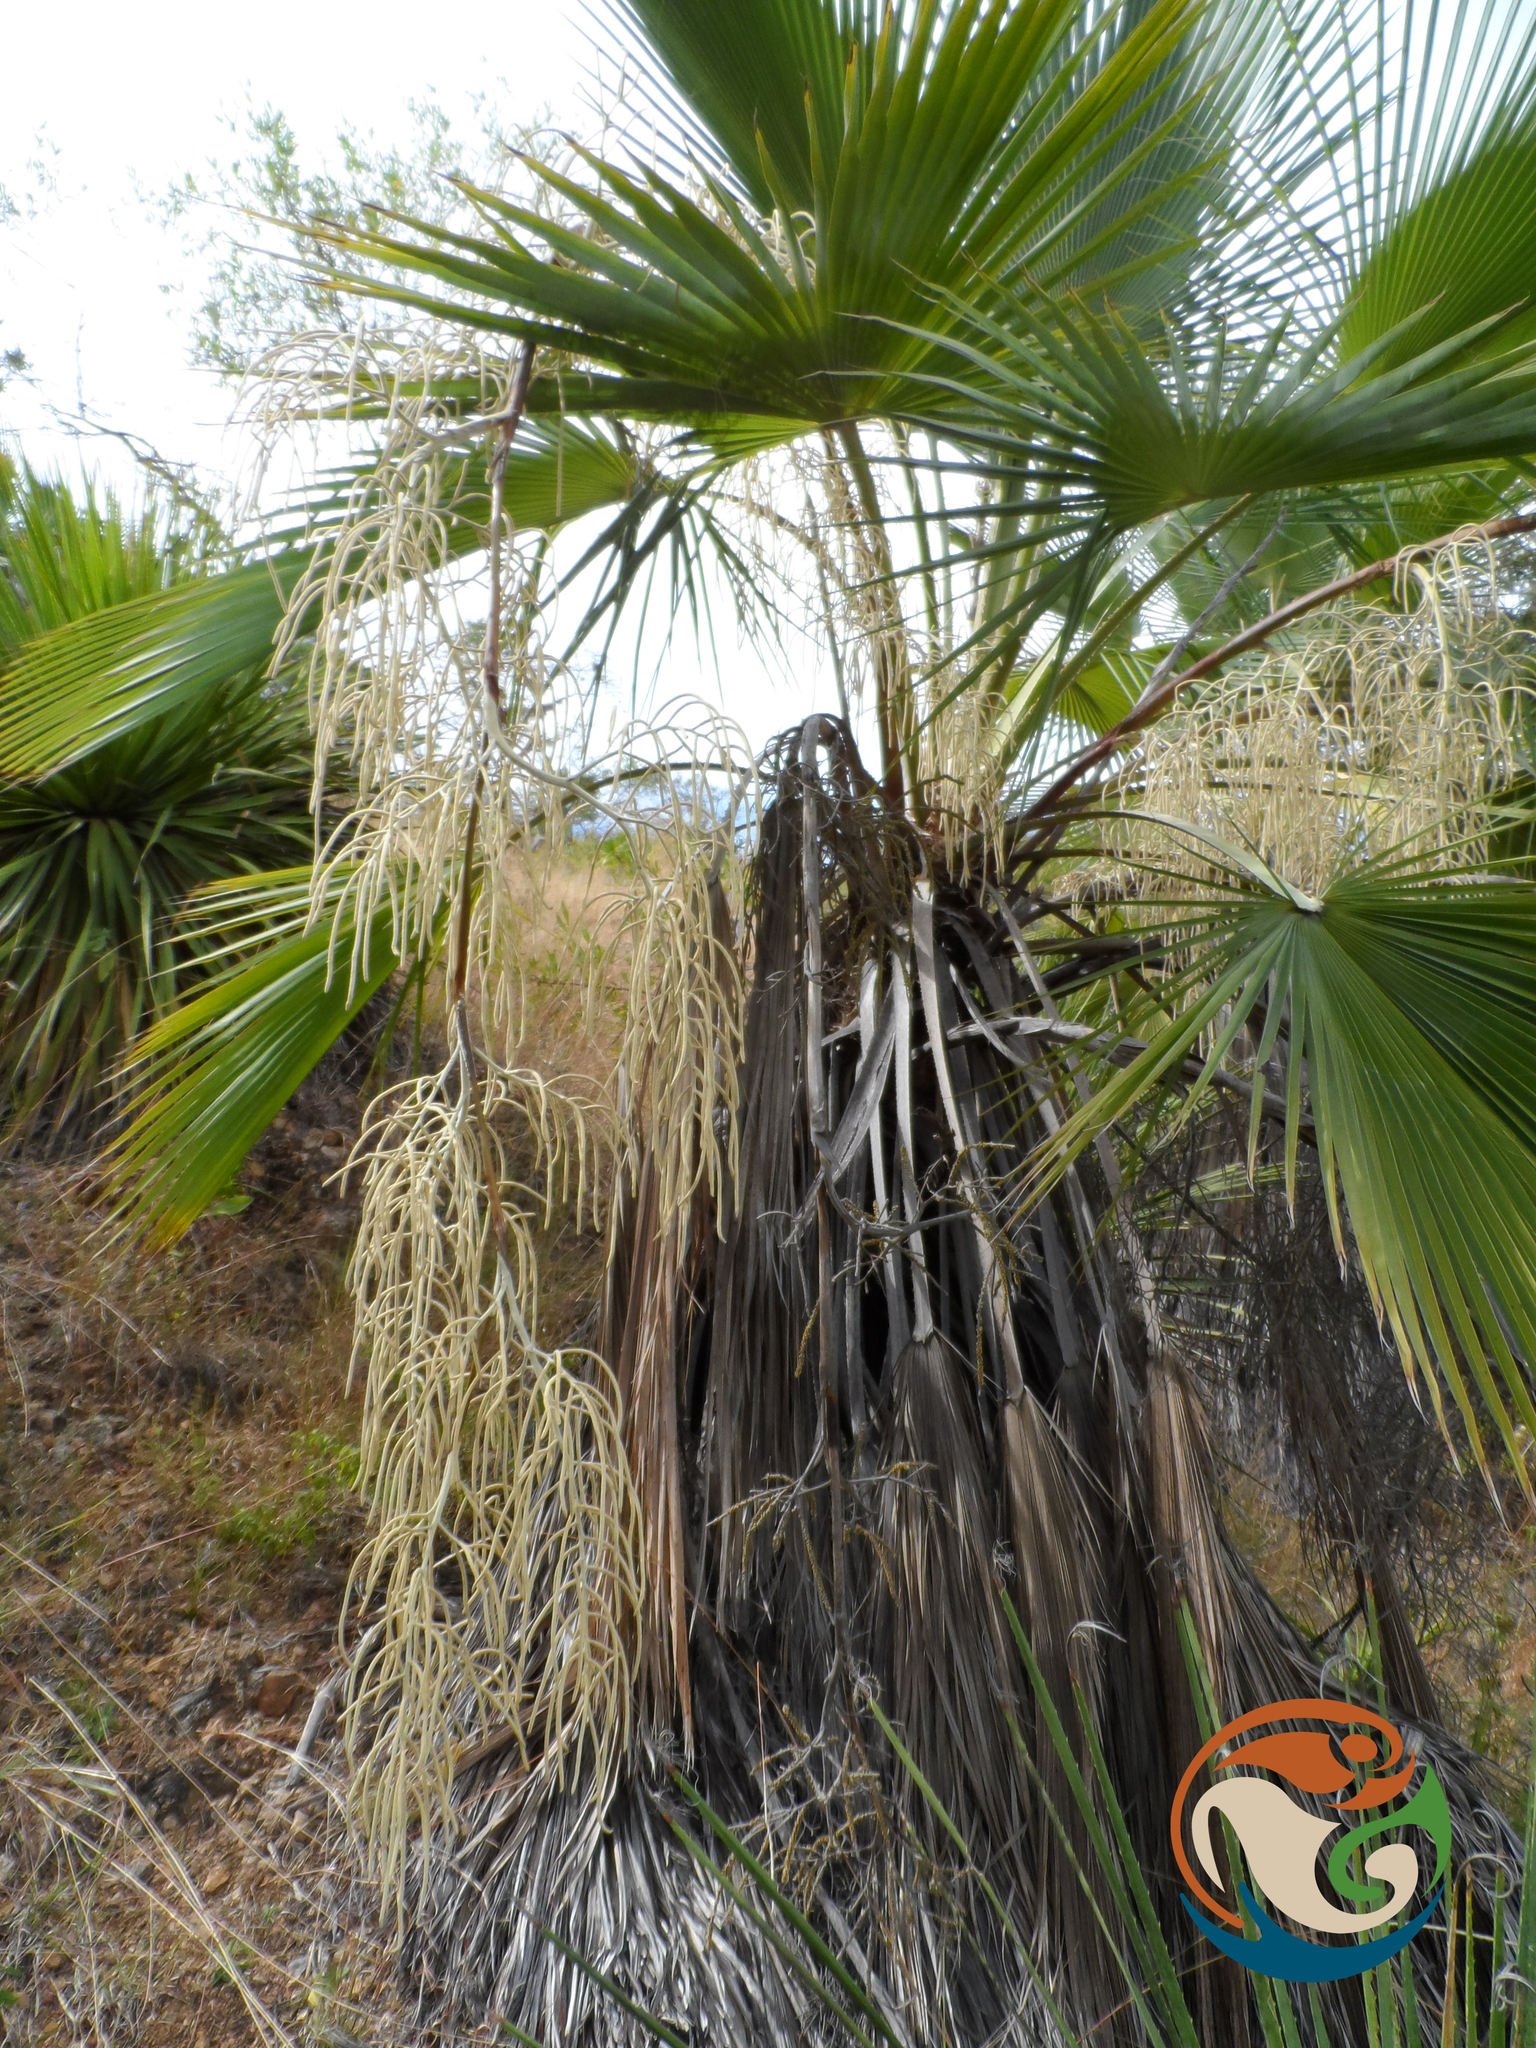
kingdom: Plantae
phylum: Tracheophyta
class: Liliopsida
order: Arecales
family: Arecaceae
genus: Brahea
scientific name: Brahea dulcis
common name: Apak palm
